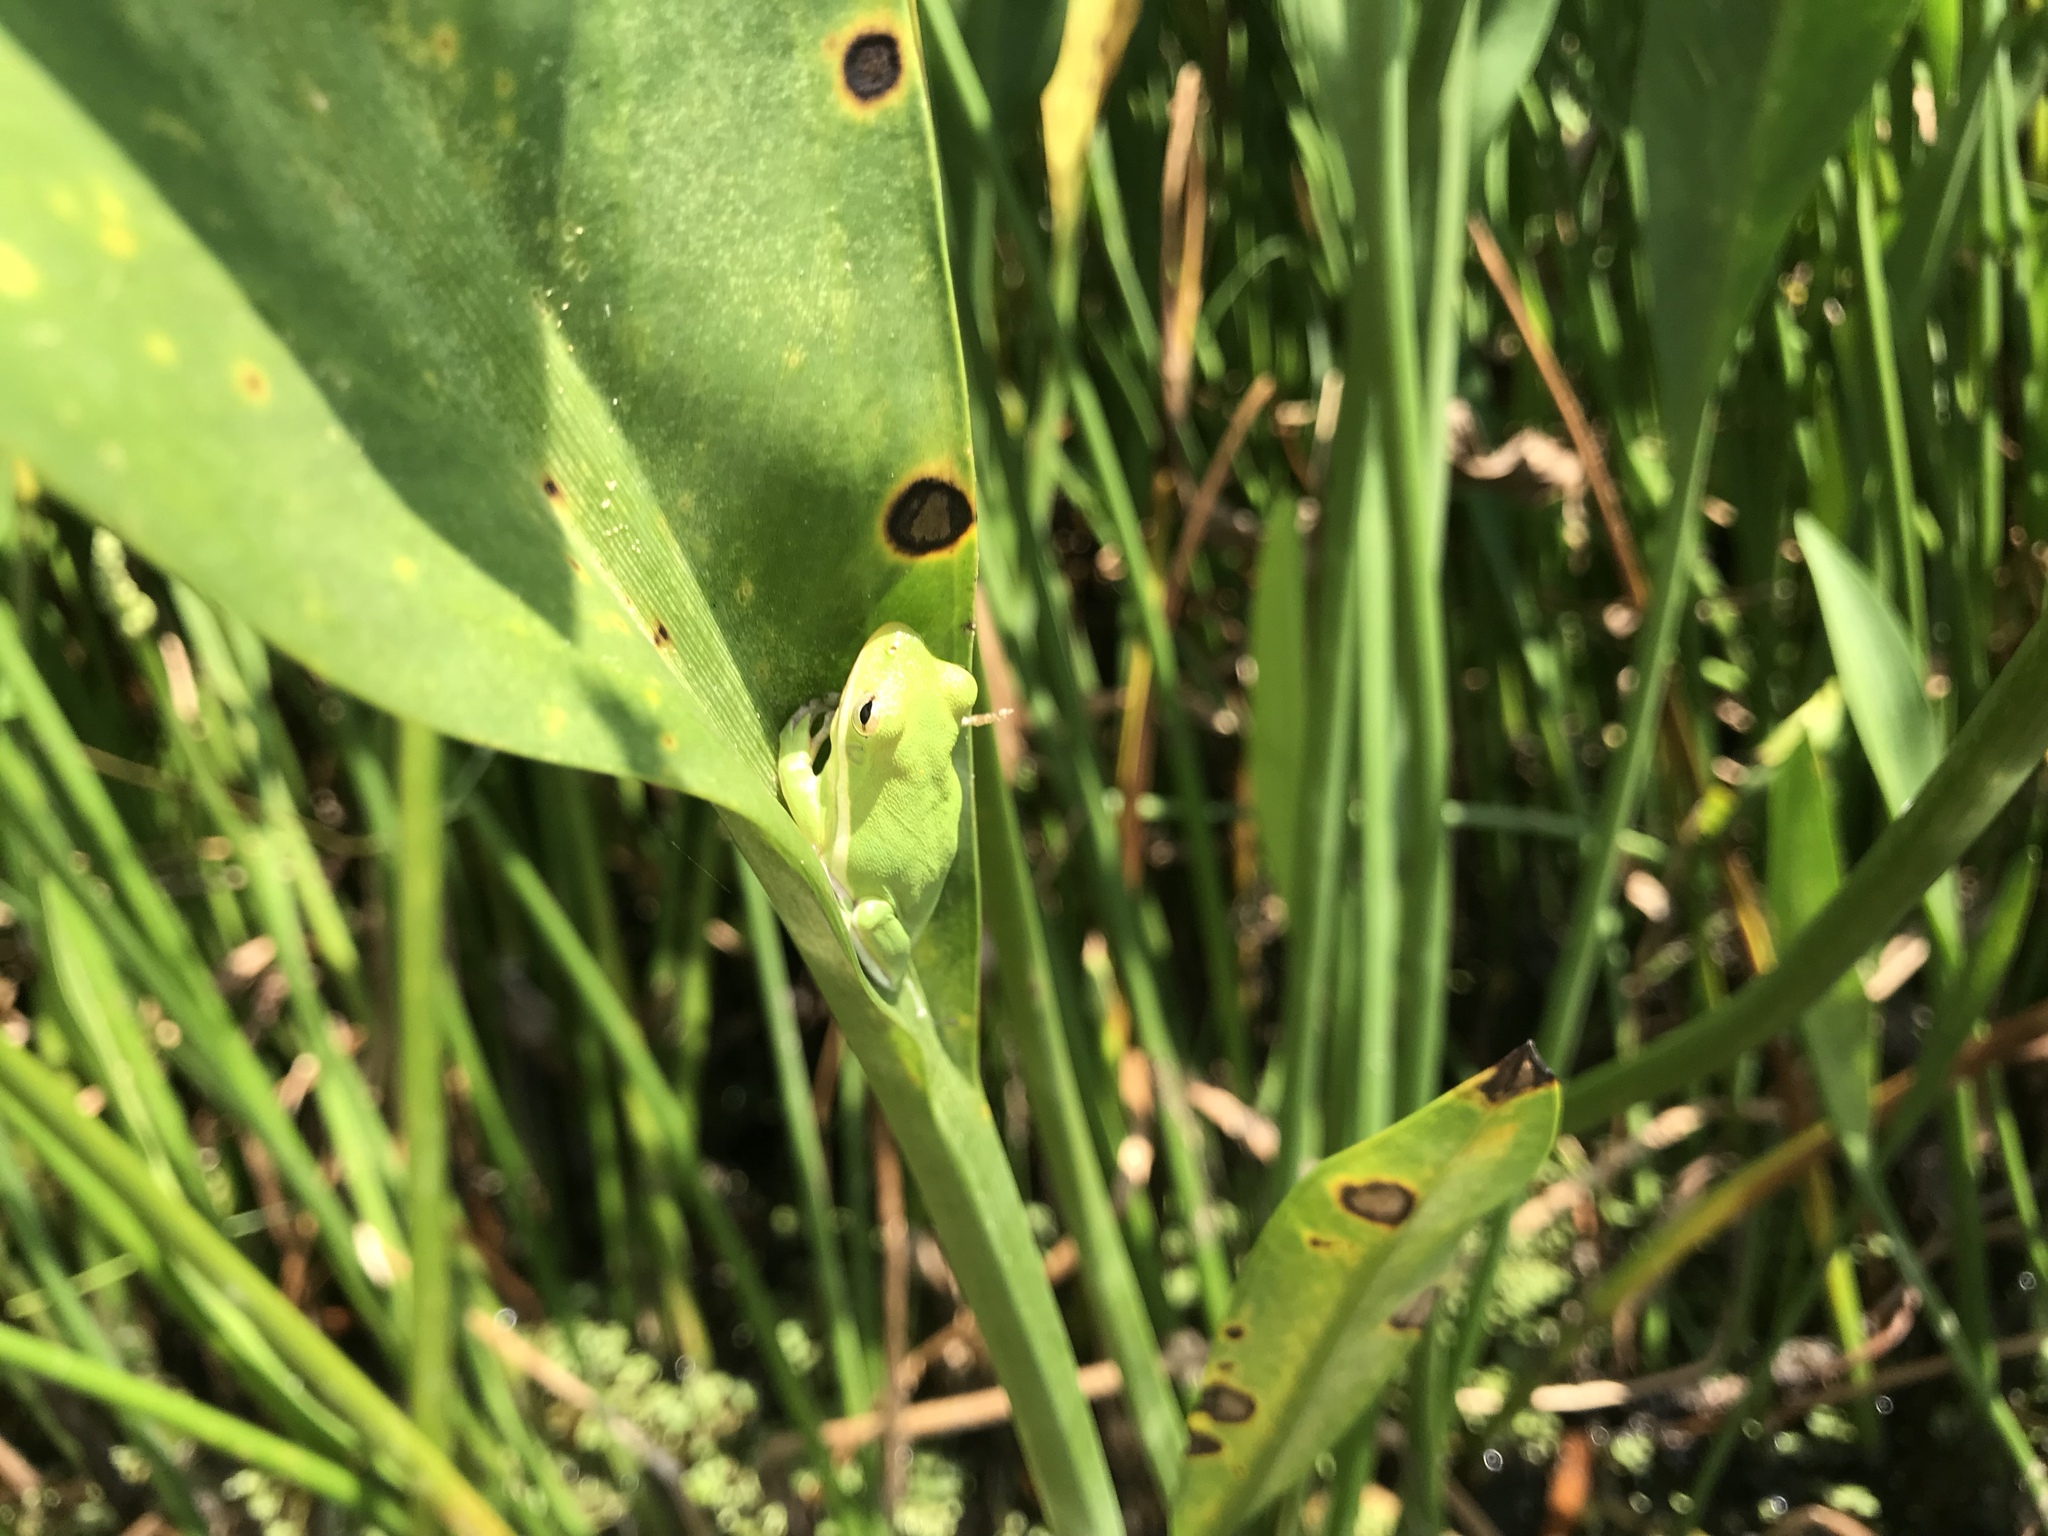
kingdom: Animalia
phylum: Chordata
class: Amphibia
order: Anura
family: Hylidae
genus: Dryophytes
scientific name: Dryophytes cinereus
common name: Green treefrog
